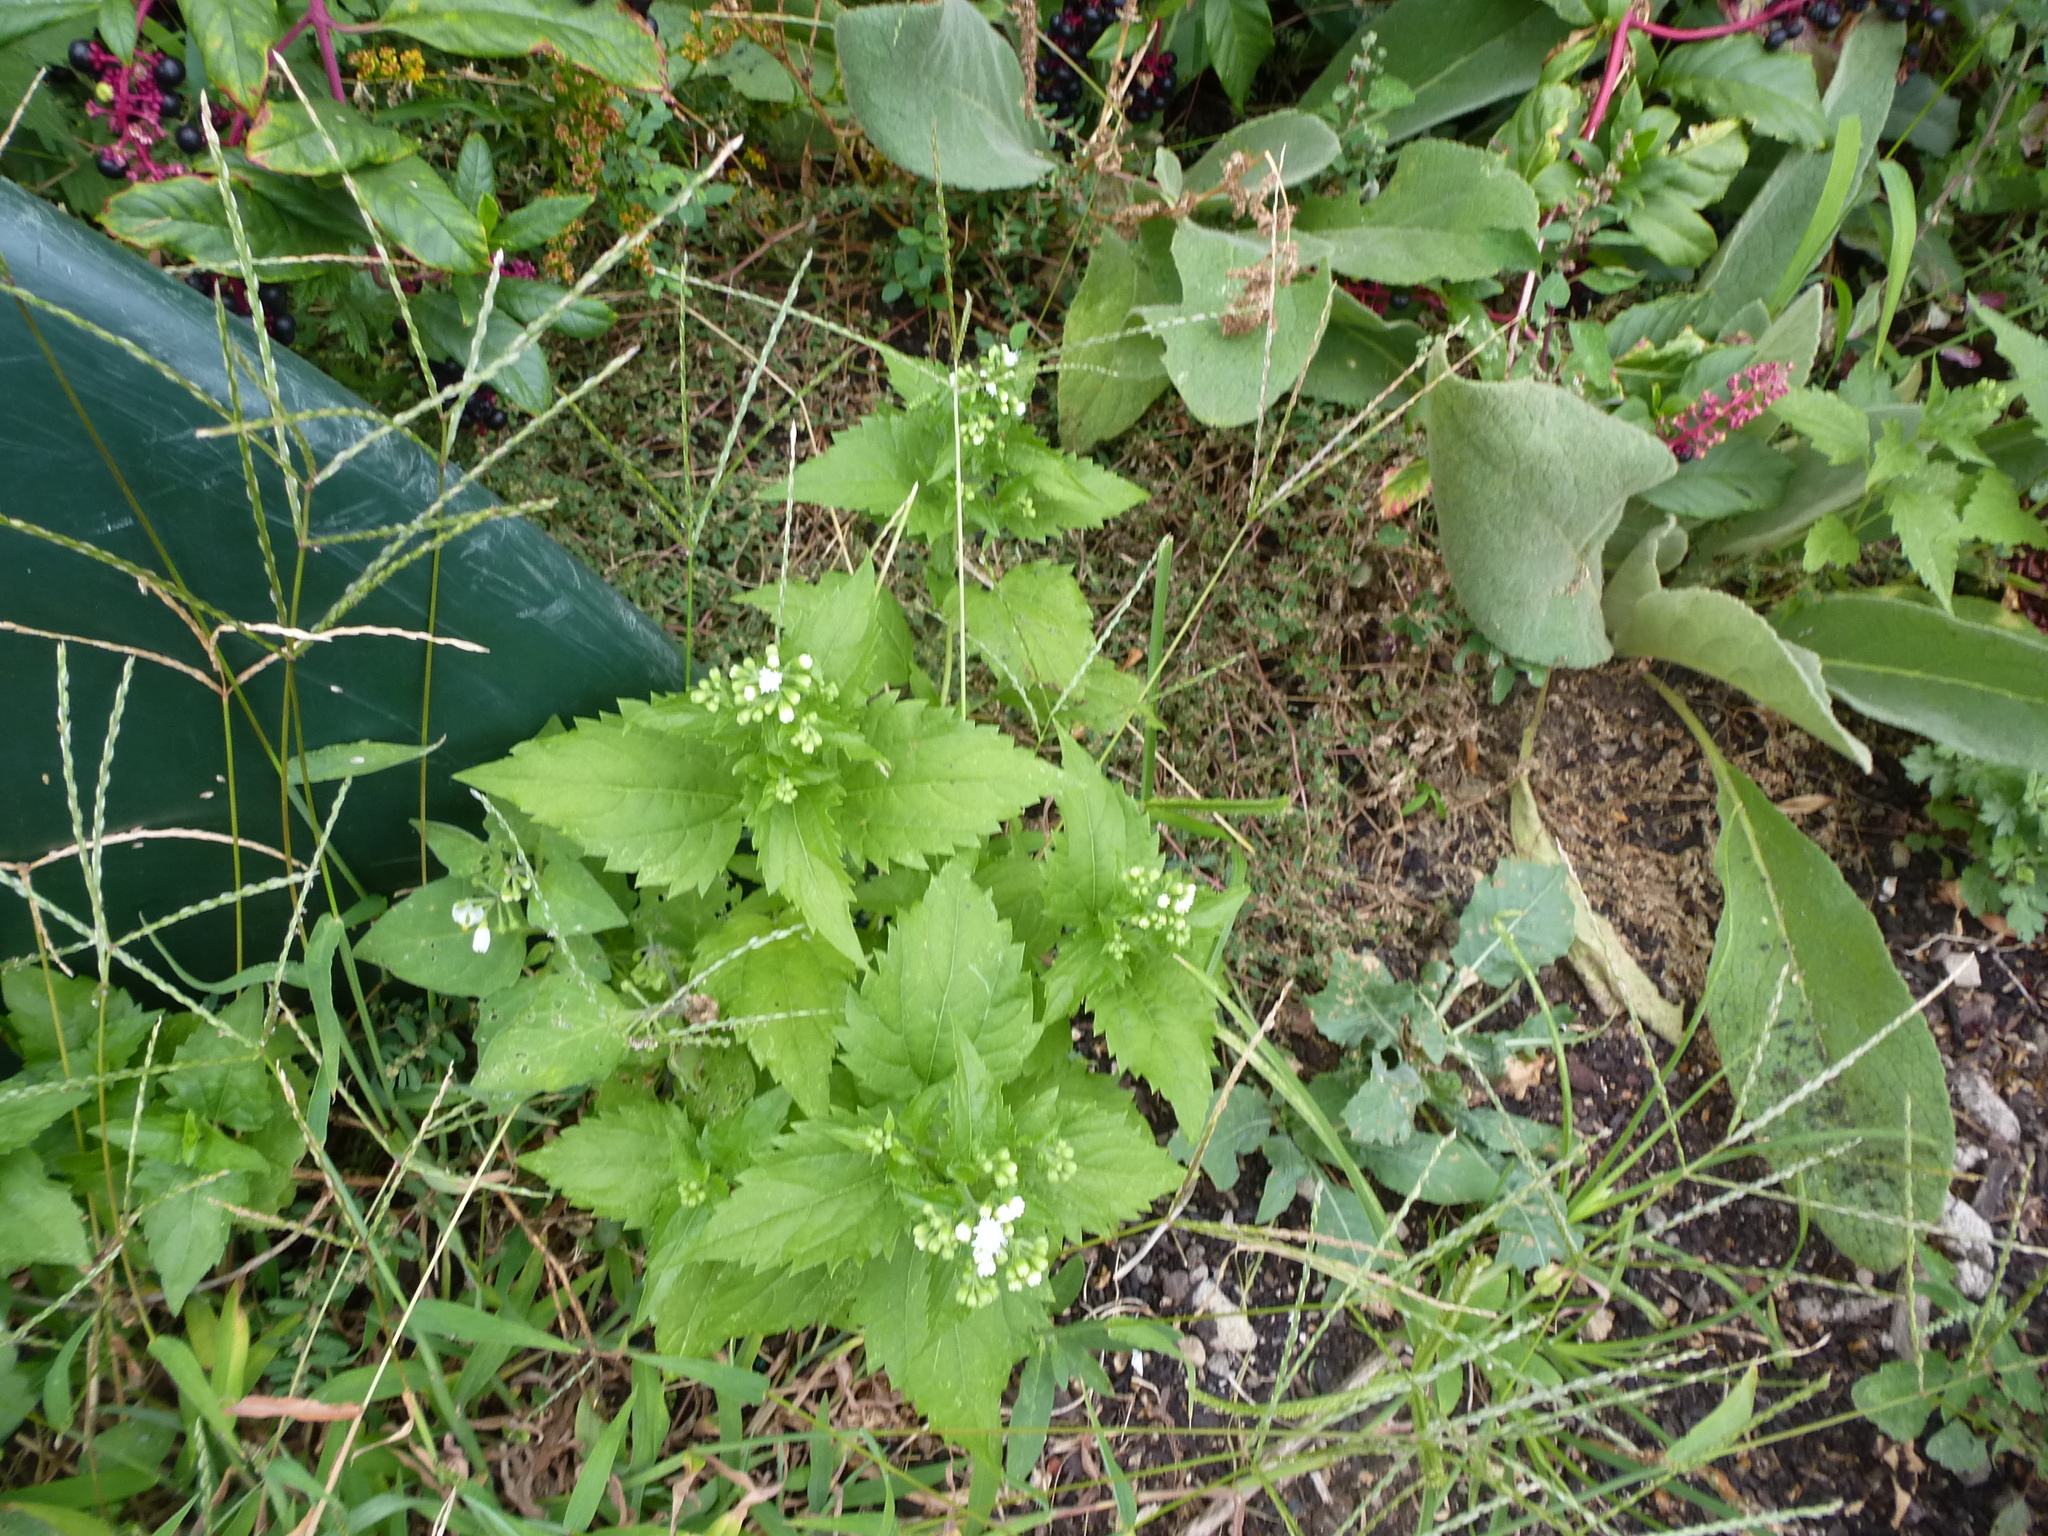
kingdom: Plantae
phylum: Tracheophyta
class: Magnoliopsida
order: Brassicales
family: Brassicaceae
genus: Alliaria
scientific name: Alliaria petiolata
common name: Garlic mustard
